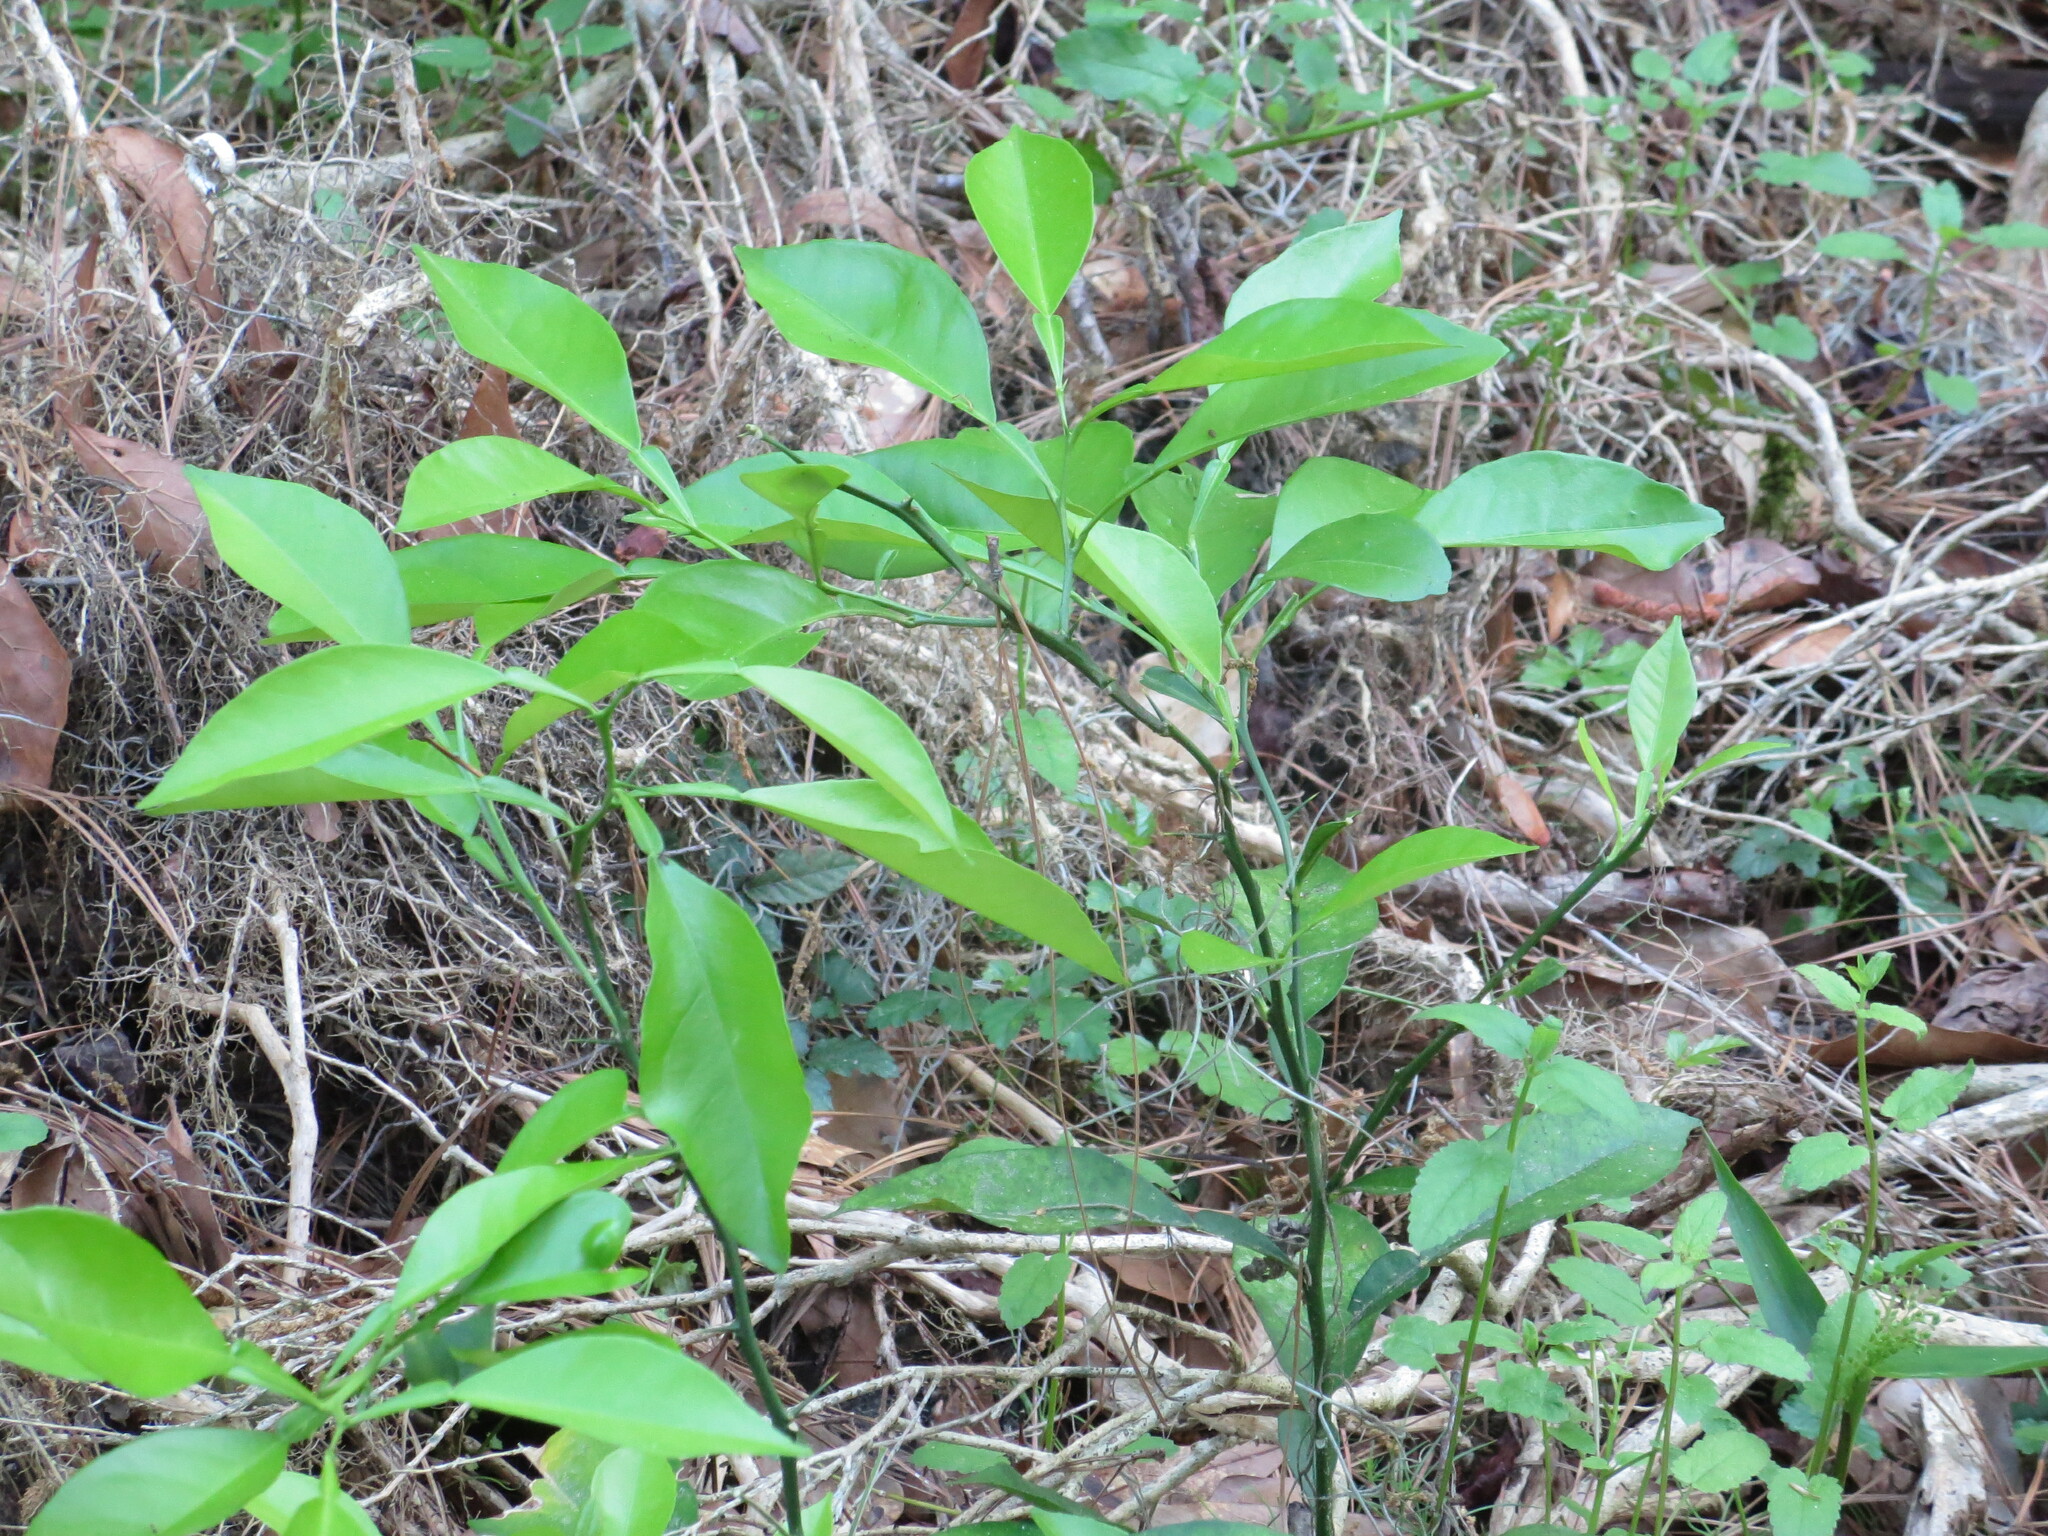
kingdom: Plantae
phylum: Tracheophyta
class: Magnoliopsida
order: Sapindales
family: Rutaceae
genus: Citrus
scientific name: Citrus aurantium
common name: Sour orange
